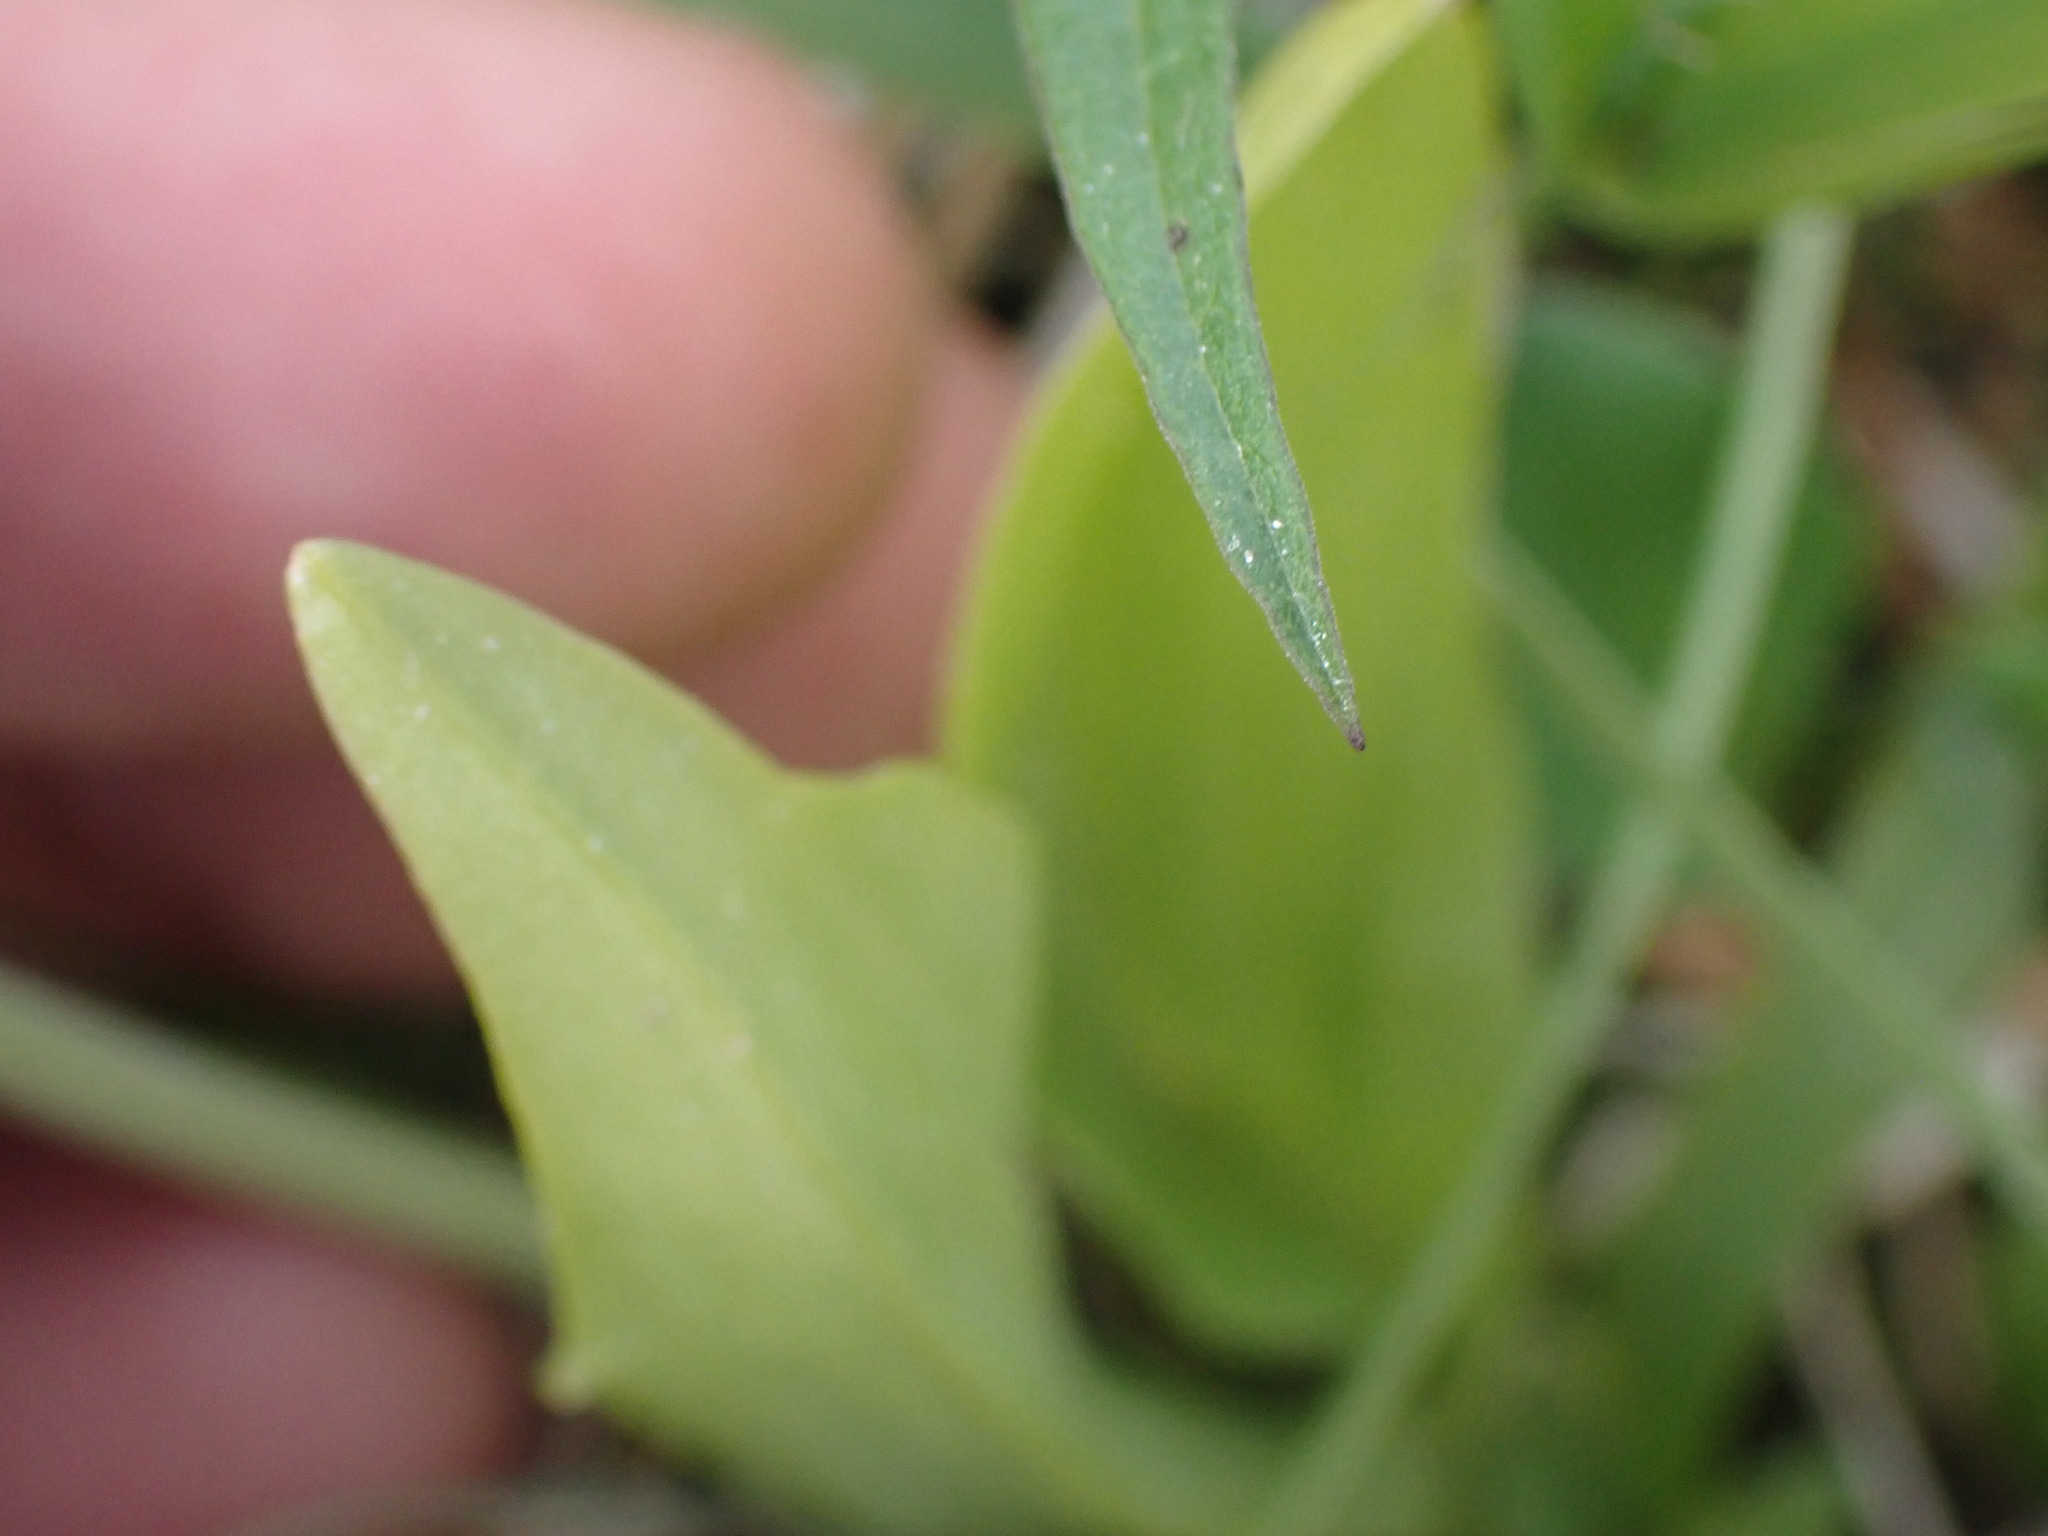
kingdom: Animalia
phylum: Arthropoda
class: Insecta
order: Coleoptera
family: Curculionidae
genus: Liparis
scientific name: Liparis loeselii
